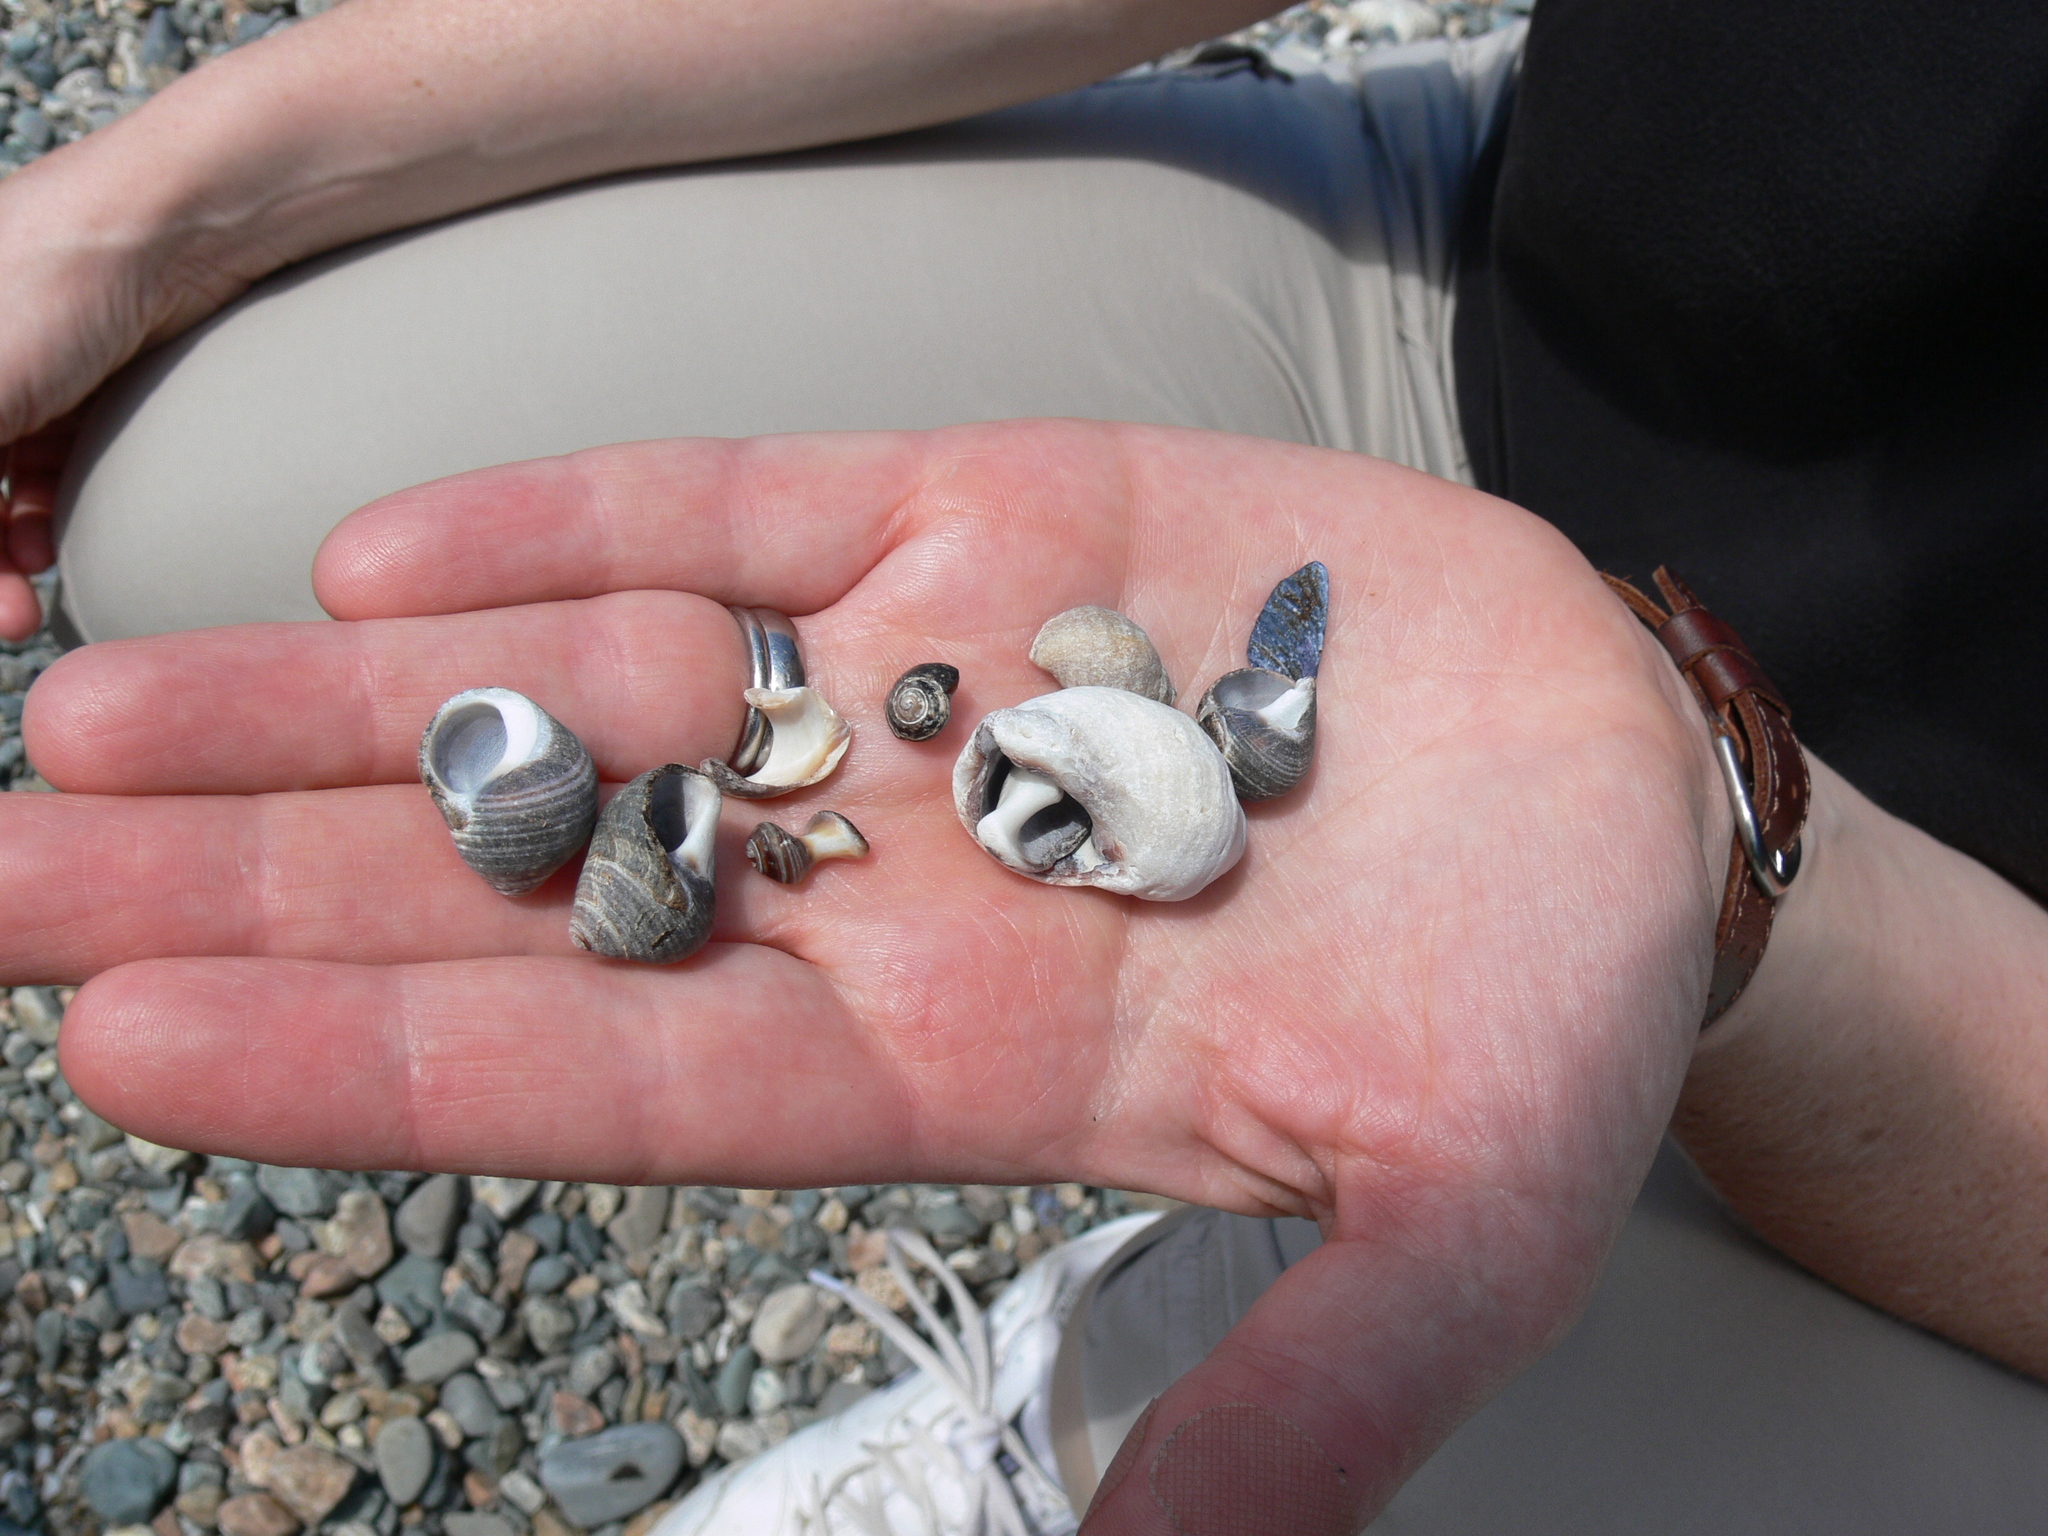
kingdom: Animalia
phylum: Mollusca
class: Gastropoda
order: Littorinimorpha
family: Littorinidae
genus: Littorina
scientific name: Littorina littorea
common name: Common periwinkle
